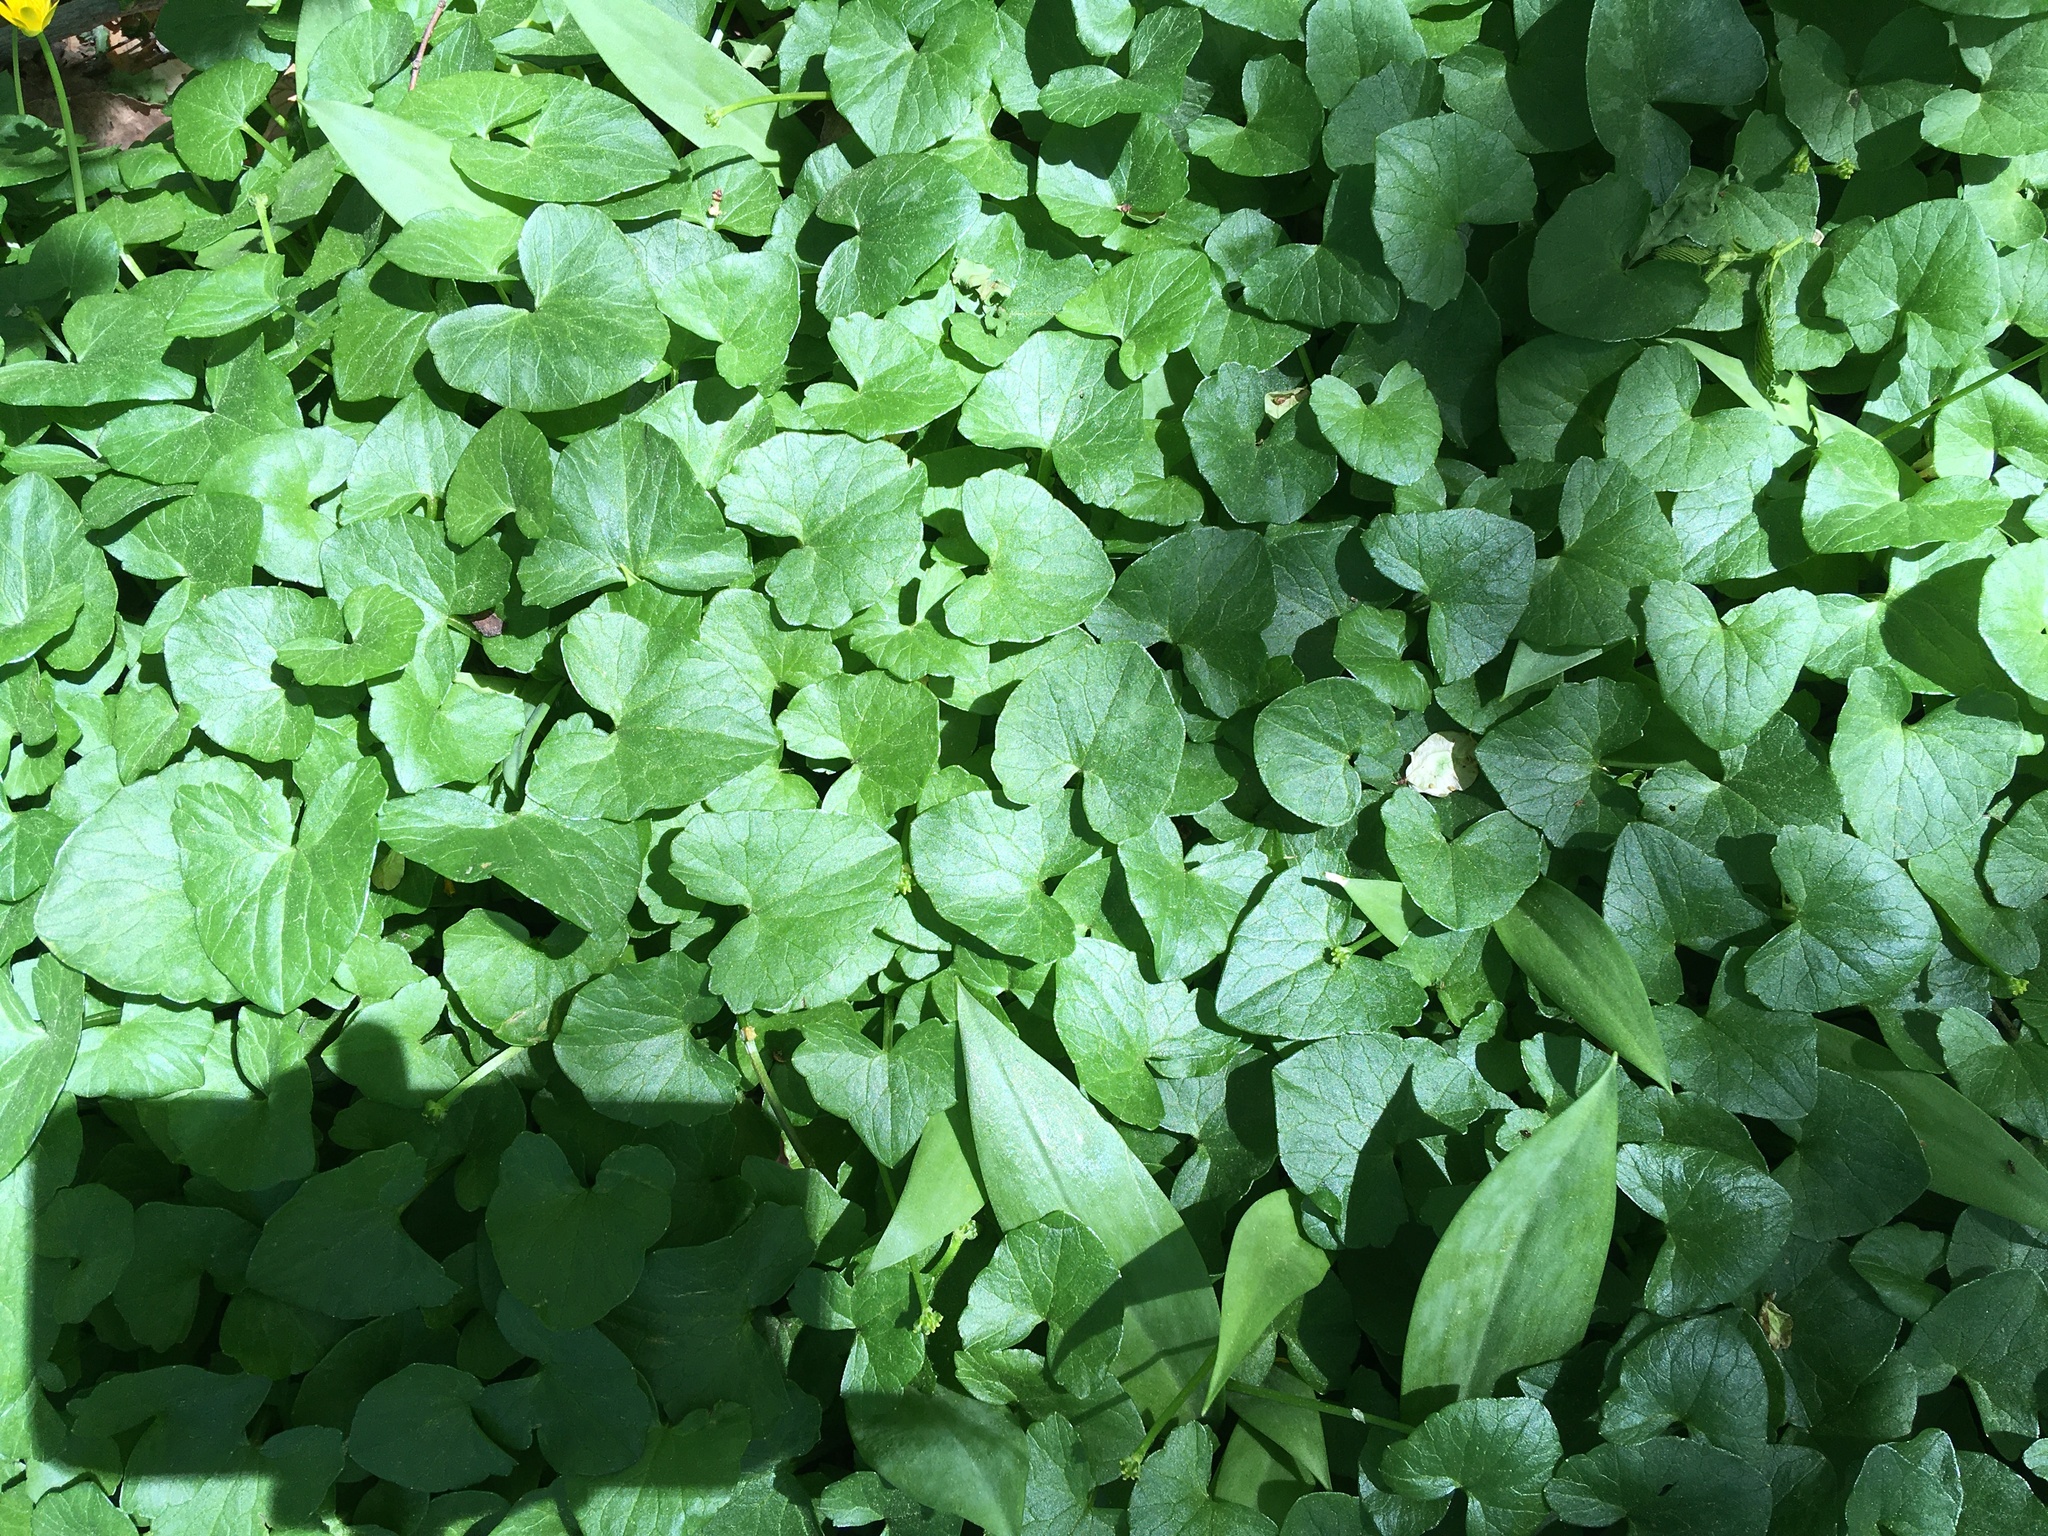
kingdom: Plantae
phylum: Tracheophyta
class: Magnoliopsida
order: Ranunculales
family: Ranunculaceae
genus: Ficaria
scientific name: Ficaria verna
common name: Lesser celandine
